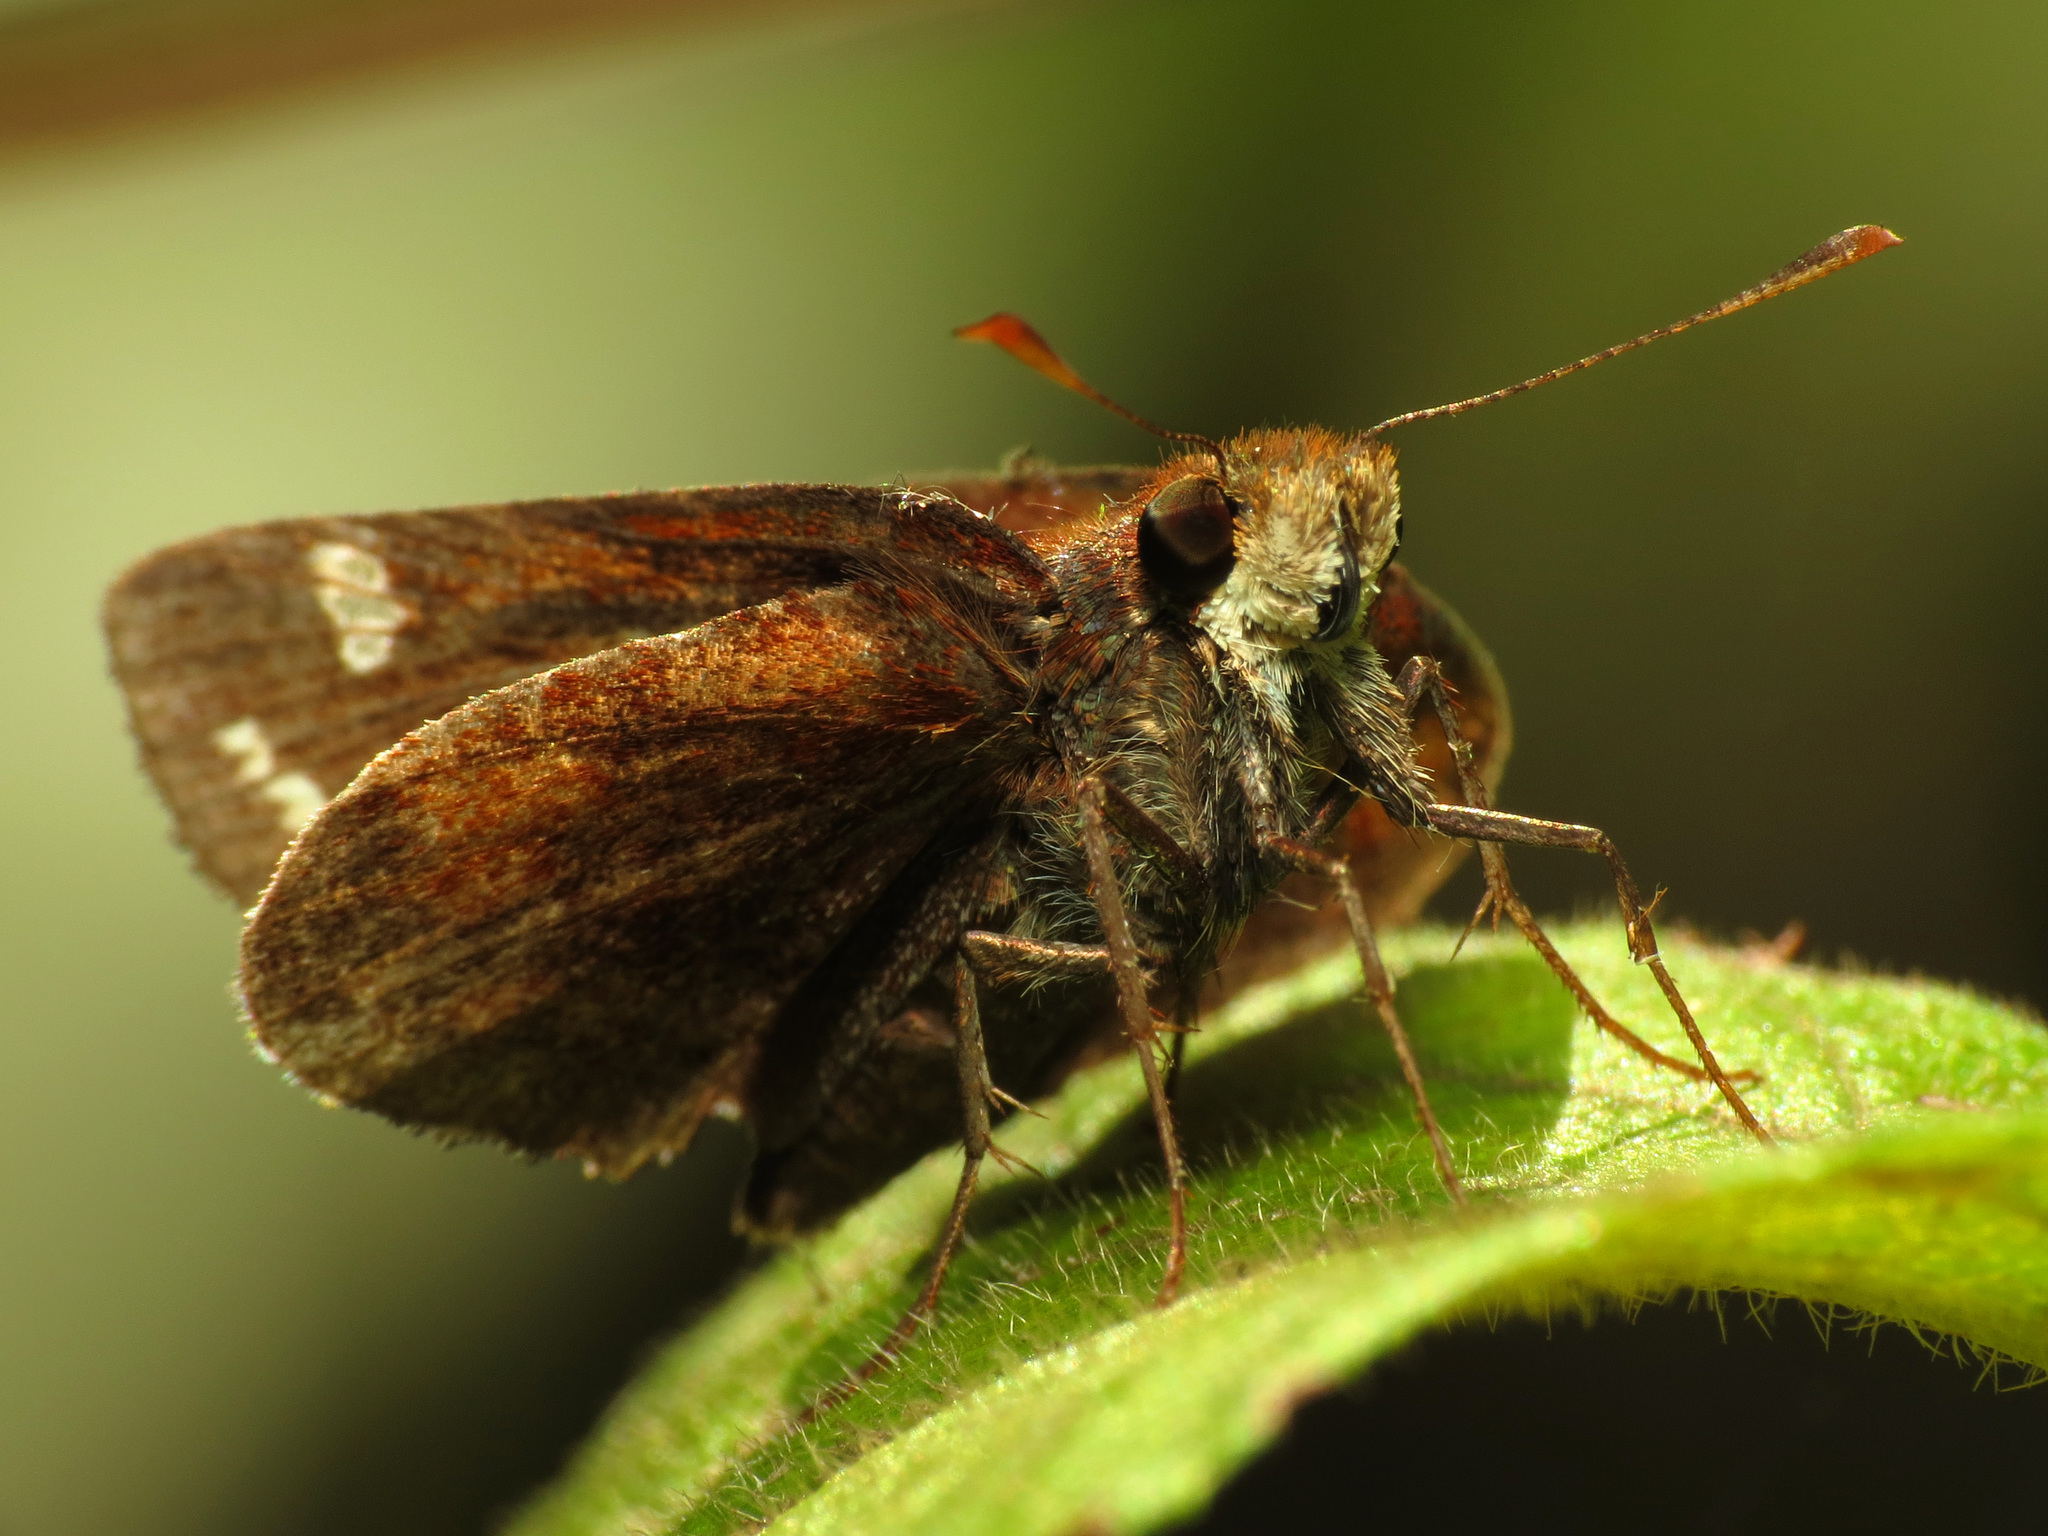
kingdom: Animalia
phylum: Arthropoda
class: Insecta
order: Lepidoptera
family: Hesperiidae
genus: Lon
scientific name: Lon zabulon
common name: Zabulon skipper
